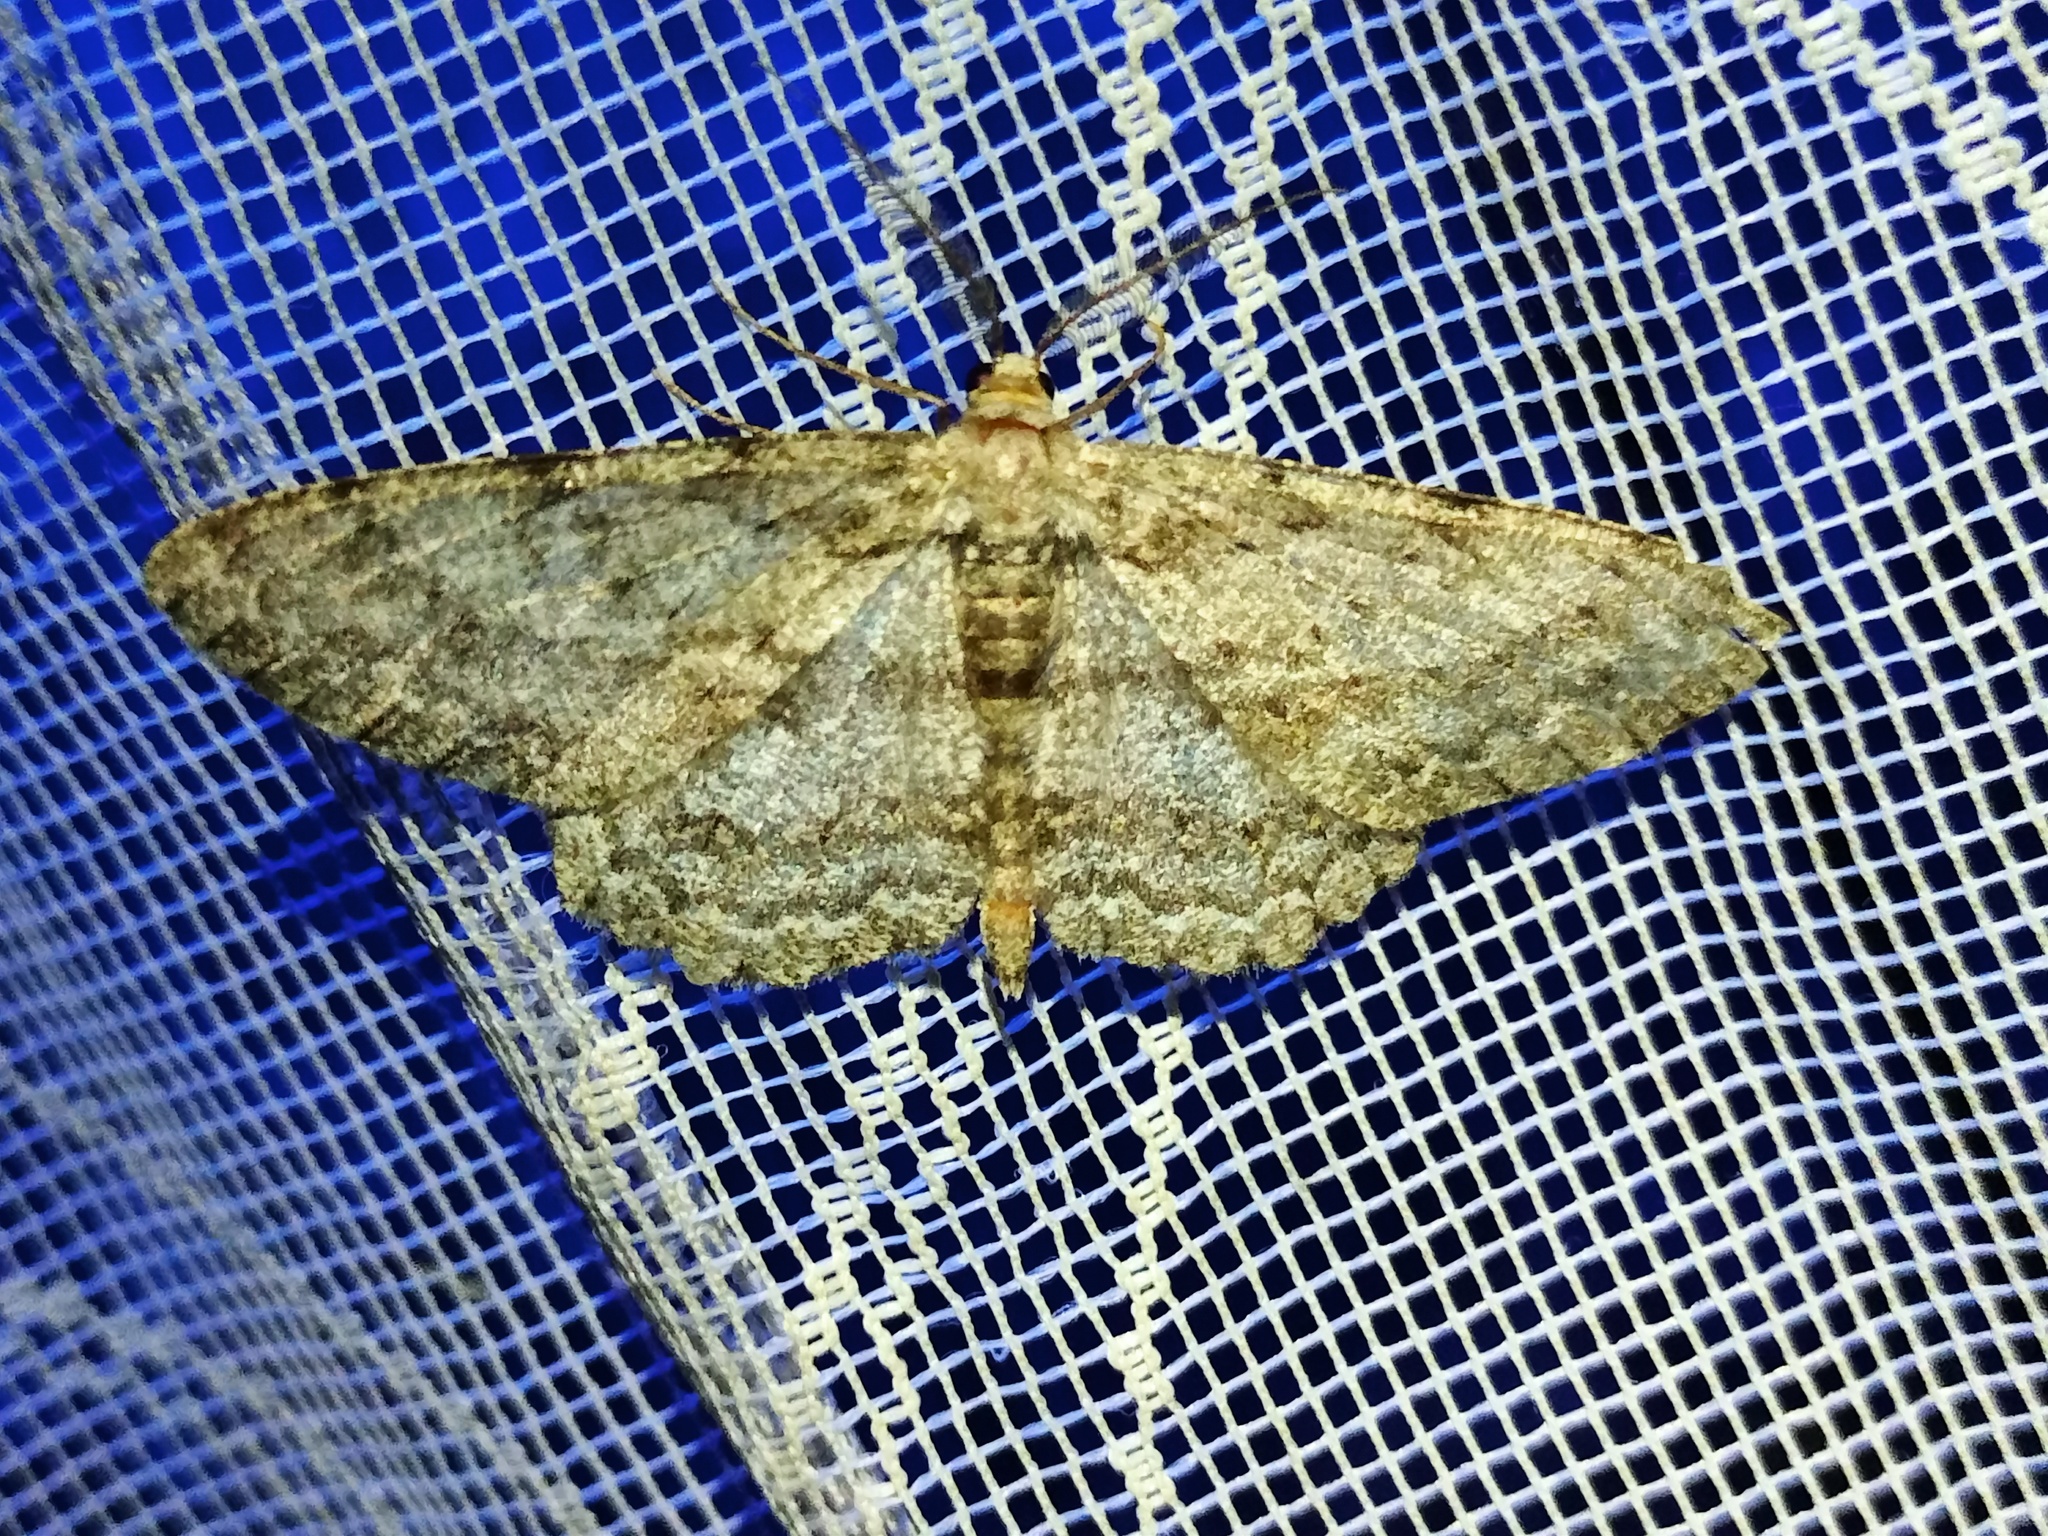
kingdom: Animalia
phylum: Arthropoda
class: Insecta
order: Lepidoptera
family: Geometridae
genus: Hypomecis
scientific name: Hypomecis punctinalis
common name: Pale oak beauty
